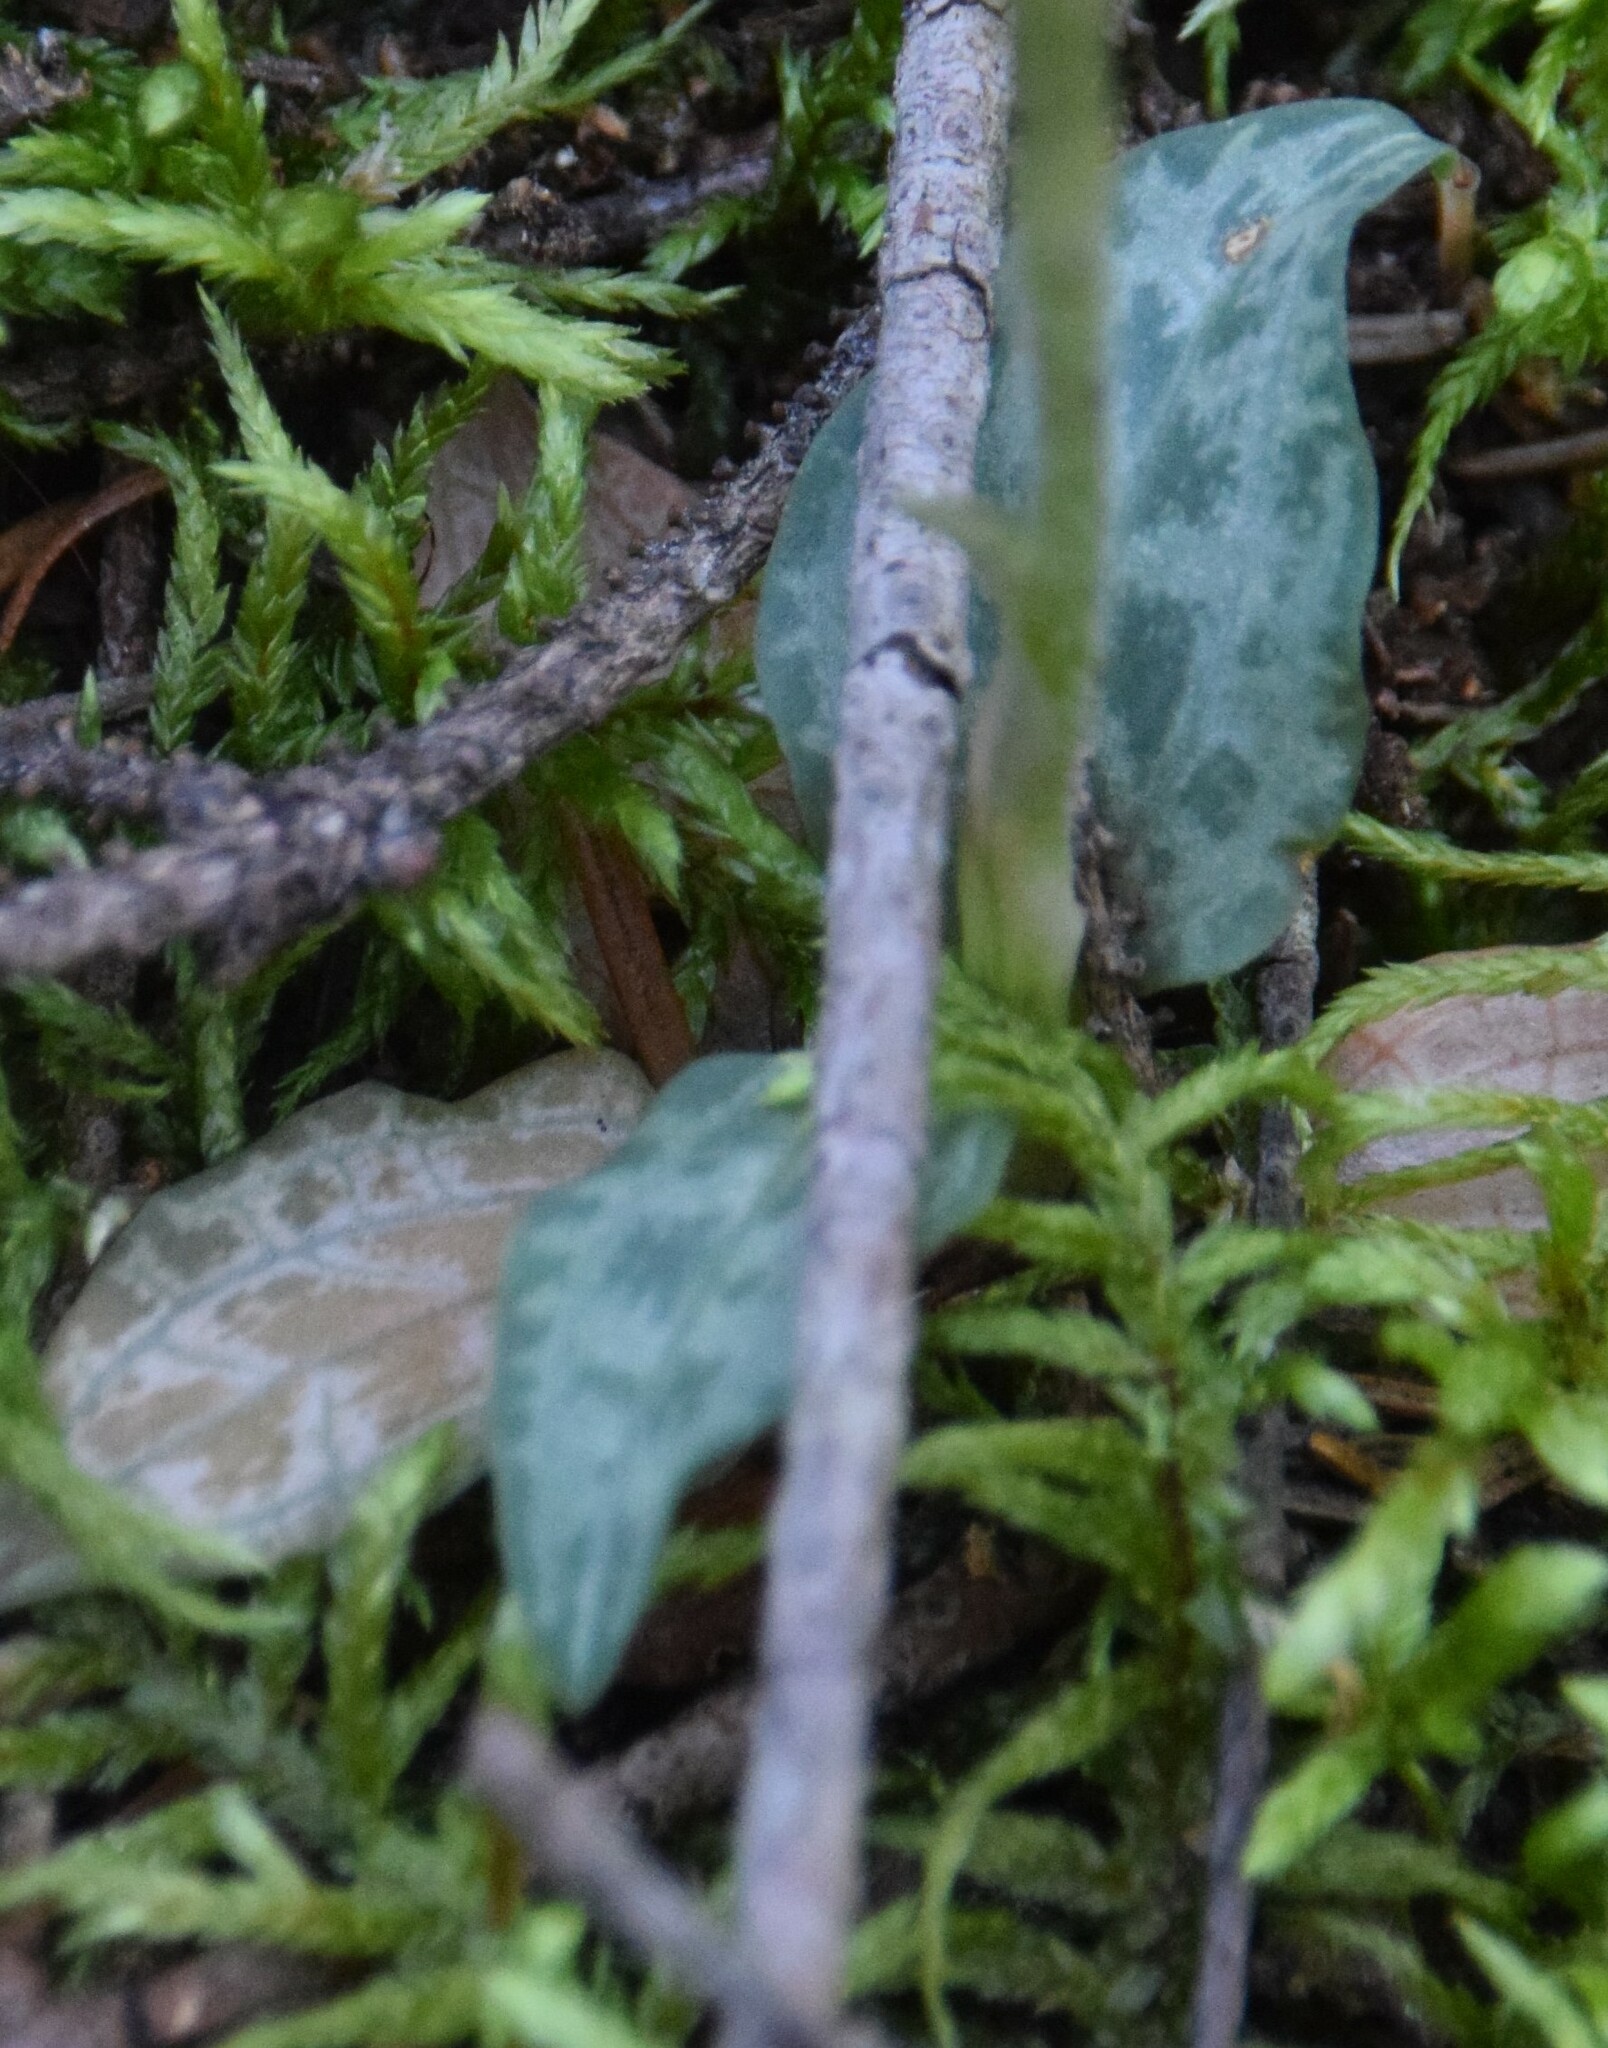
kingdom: Plantae
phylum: Tracheophyta
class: Liliopsida
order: Asparagales
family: Orchidaceae
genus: Goodyera
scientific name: Goodyera tesselata
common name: Checkered rattlesnake-plantain
